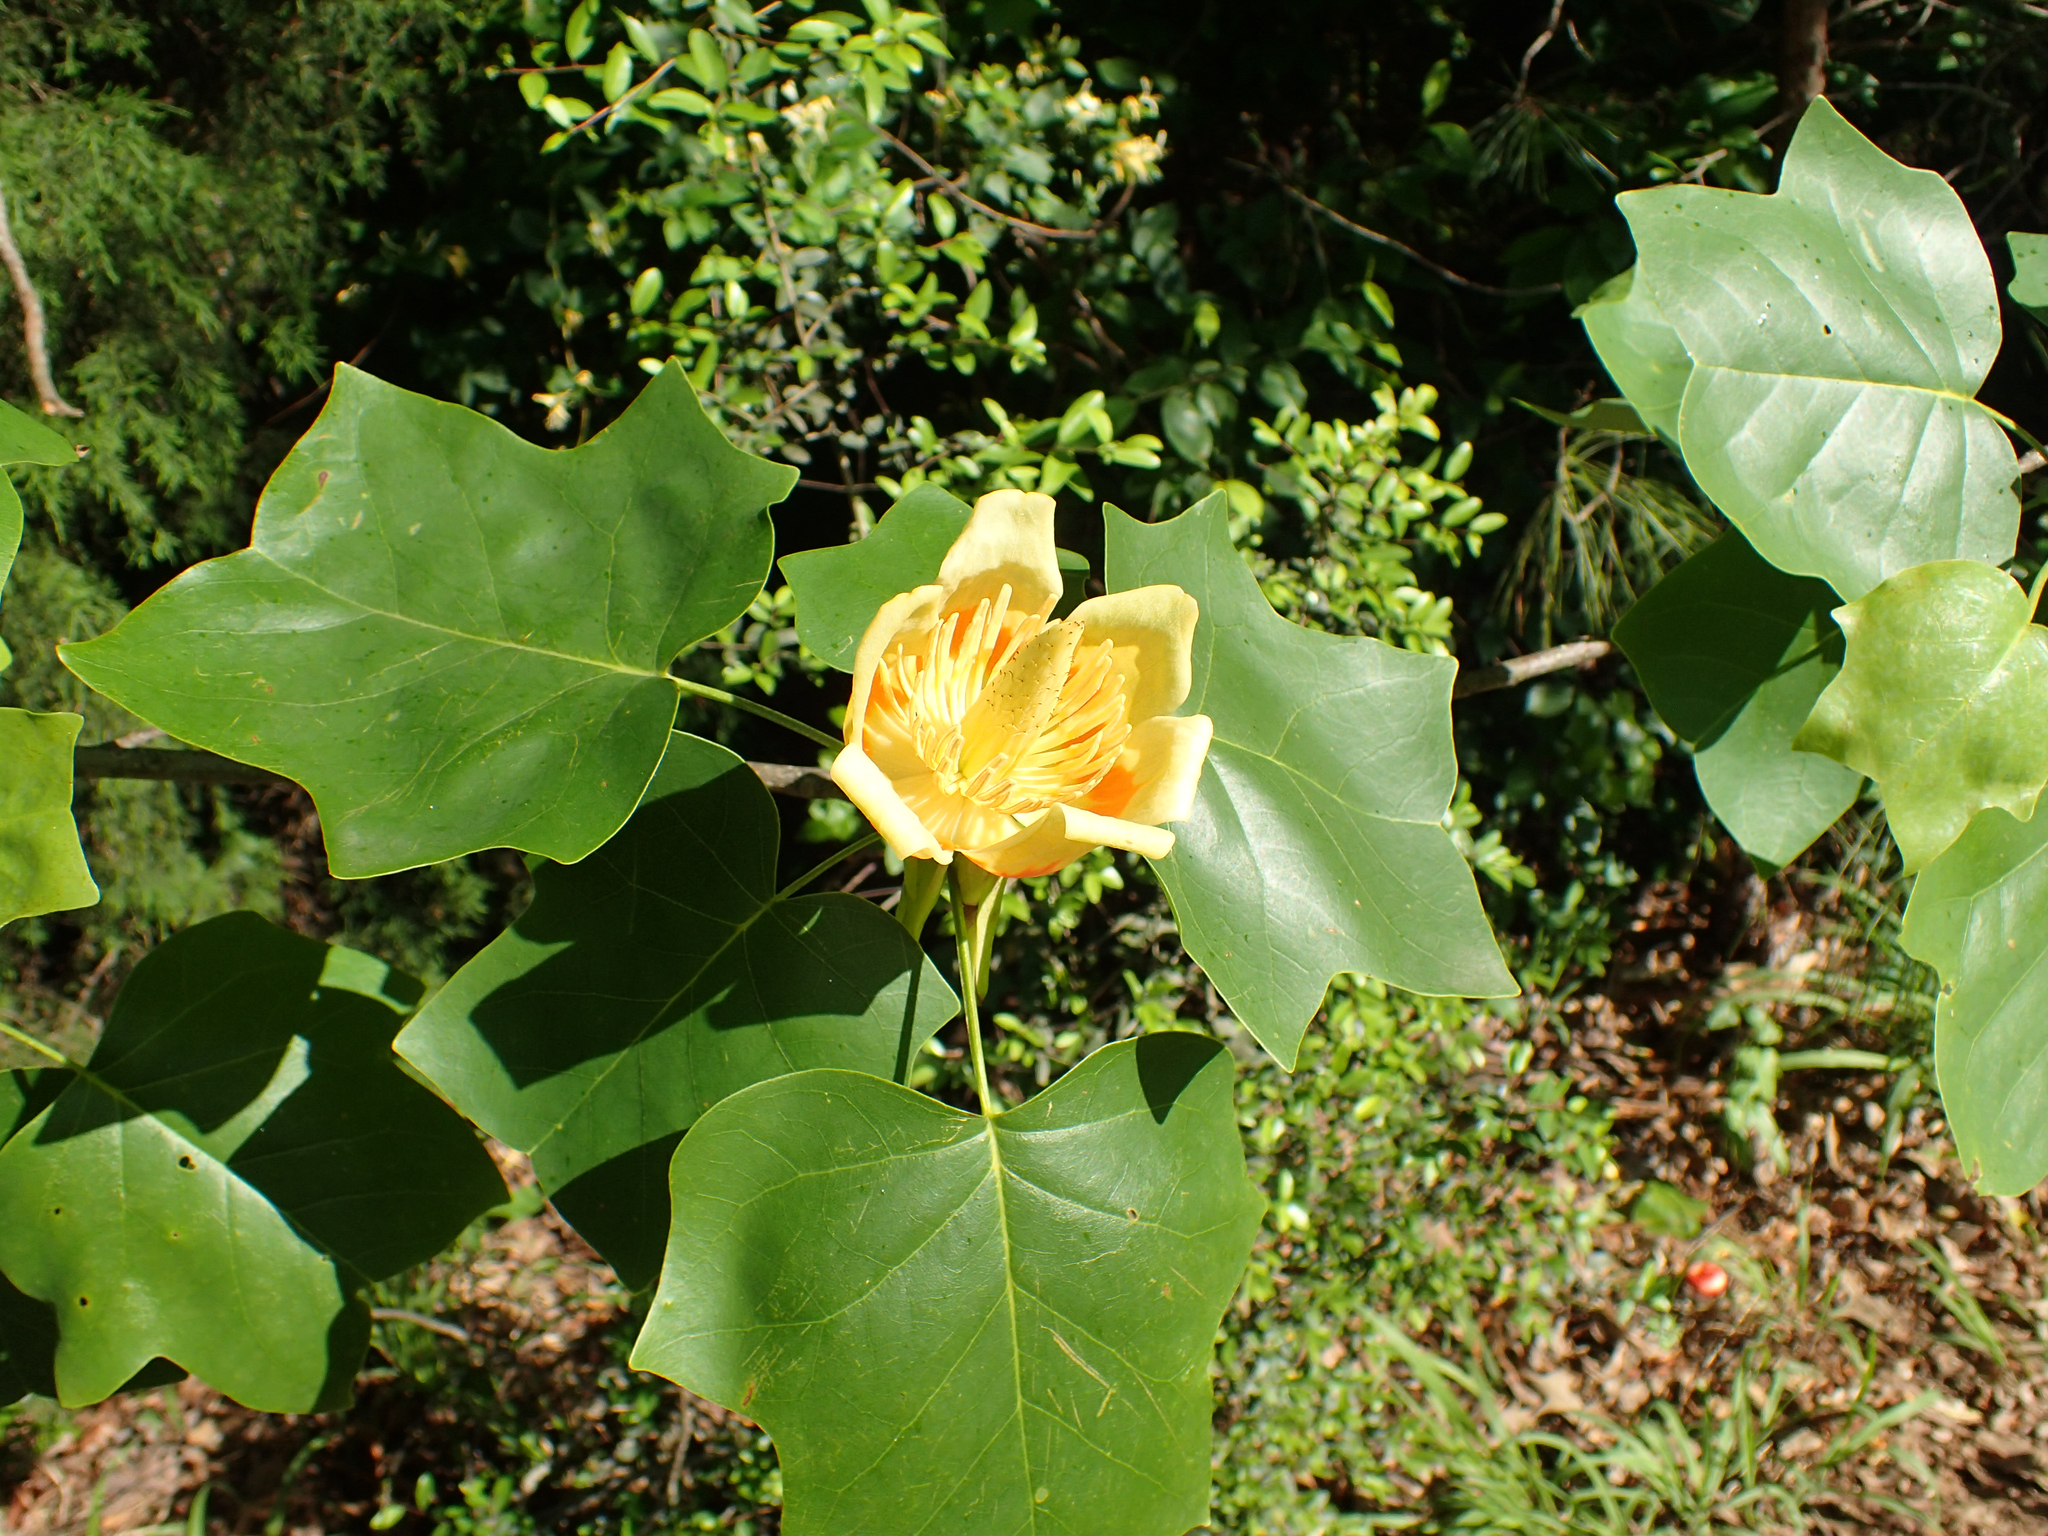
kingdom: Plantae
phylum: Tracheophyta
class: Magnoliopsida
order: Magnoliales
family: Magnoliaceae
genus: Liriodendron
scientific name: Liriodendron tulipifera
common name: Tulip tree
